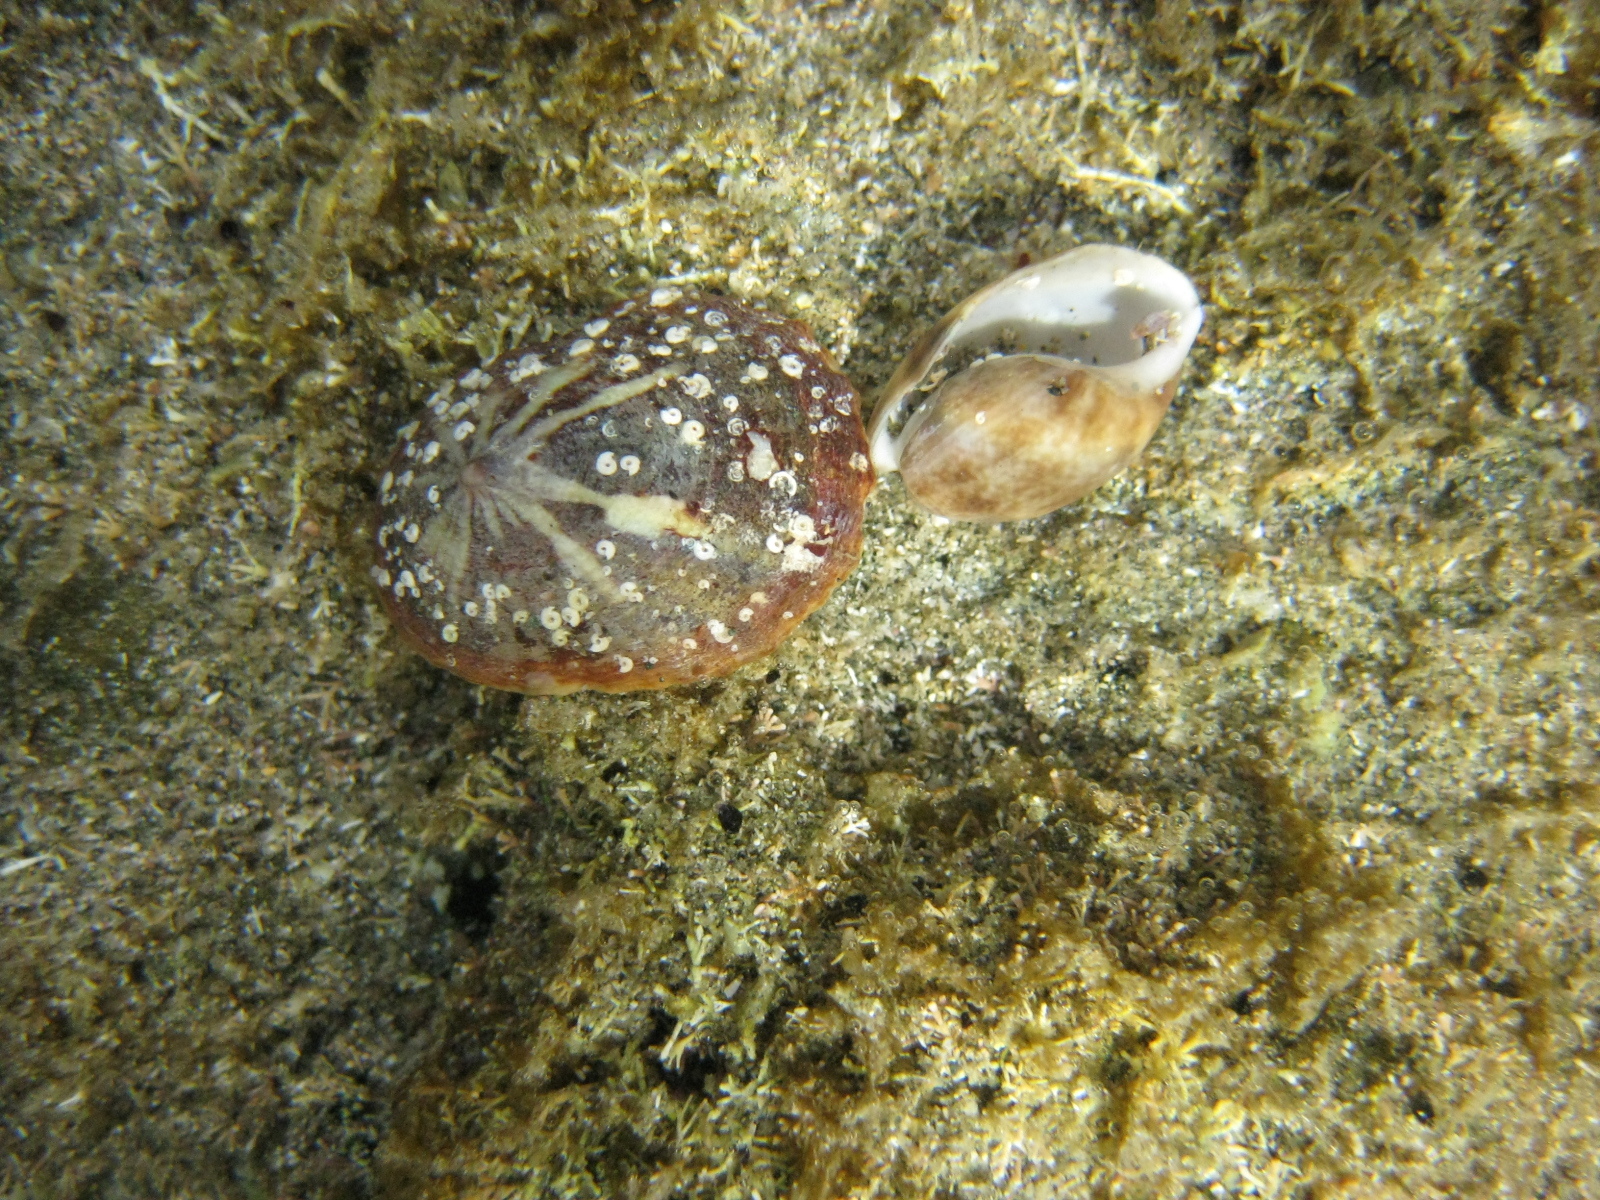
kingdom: Animalia
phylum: Mollusca
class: Gastropoda
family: Nacellidae
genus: Cellana
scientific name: Cellana stellifera
